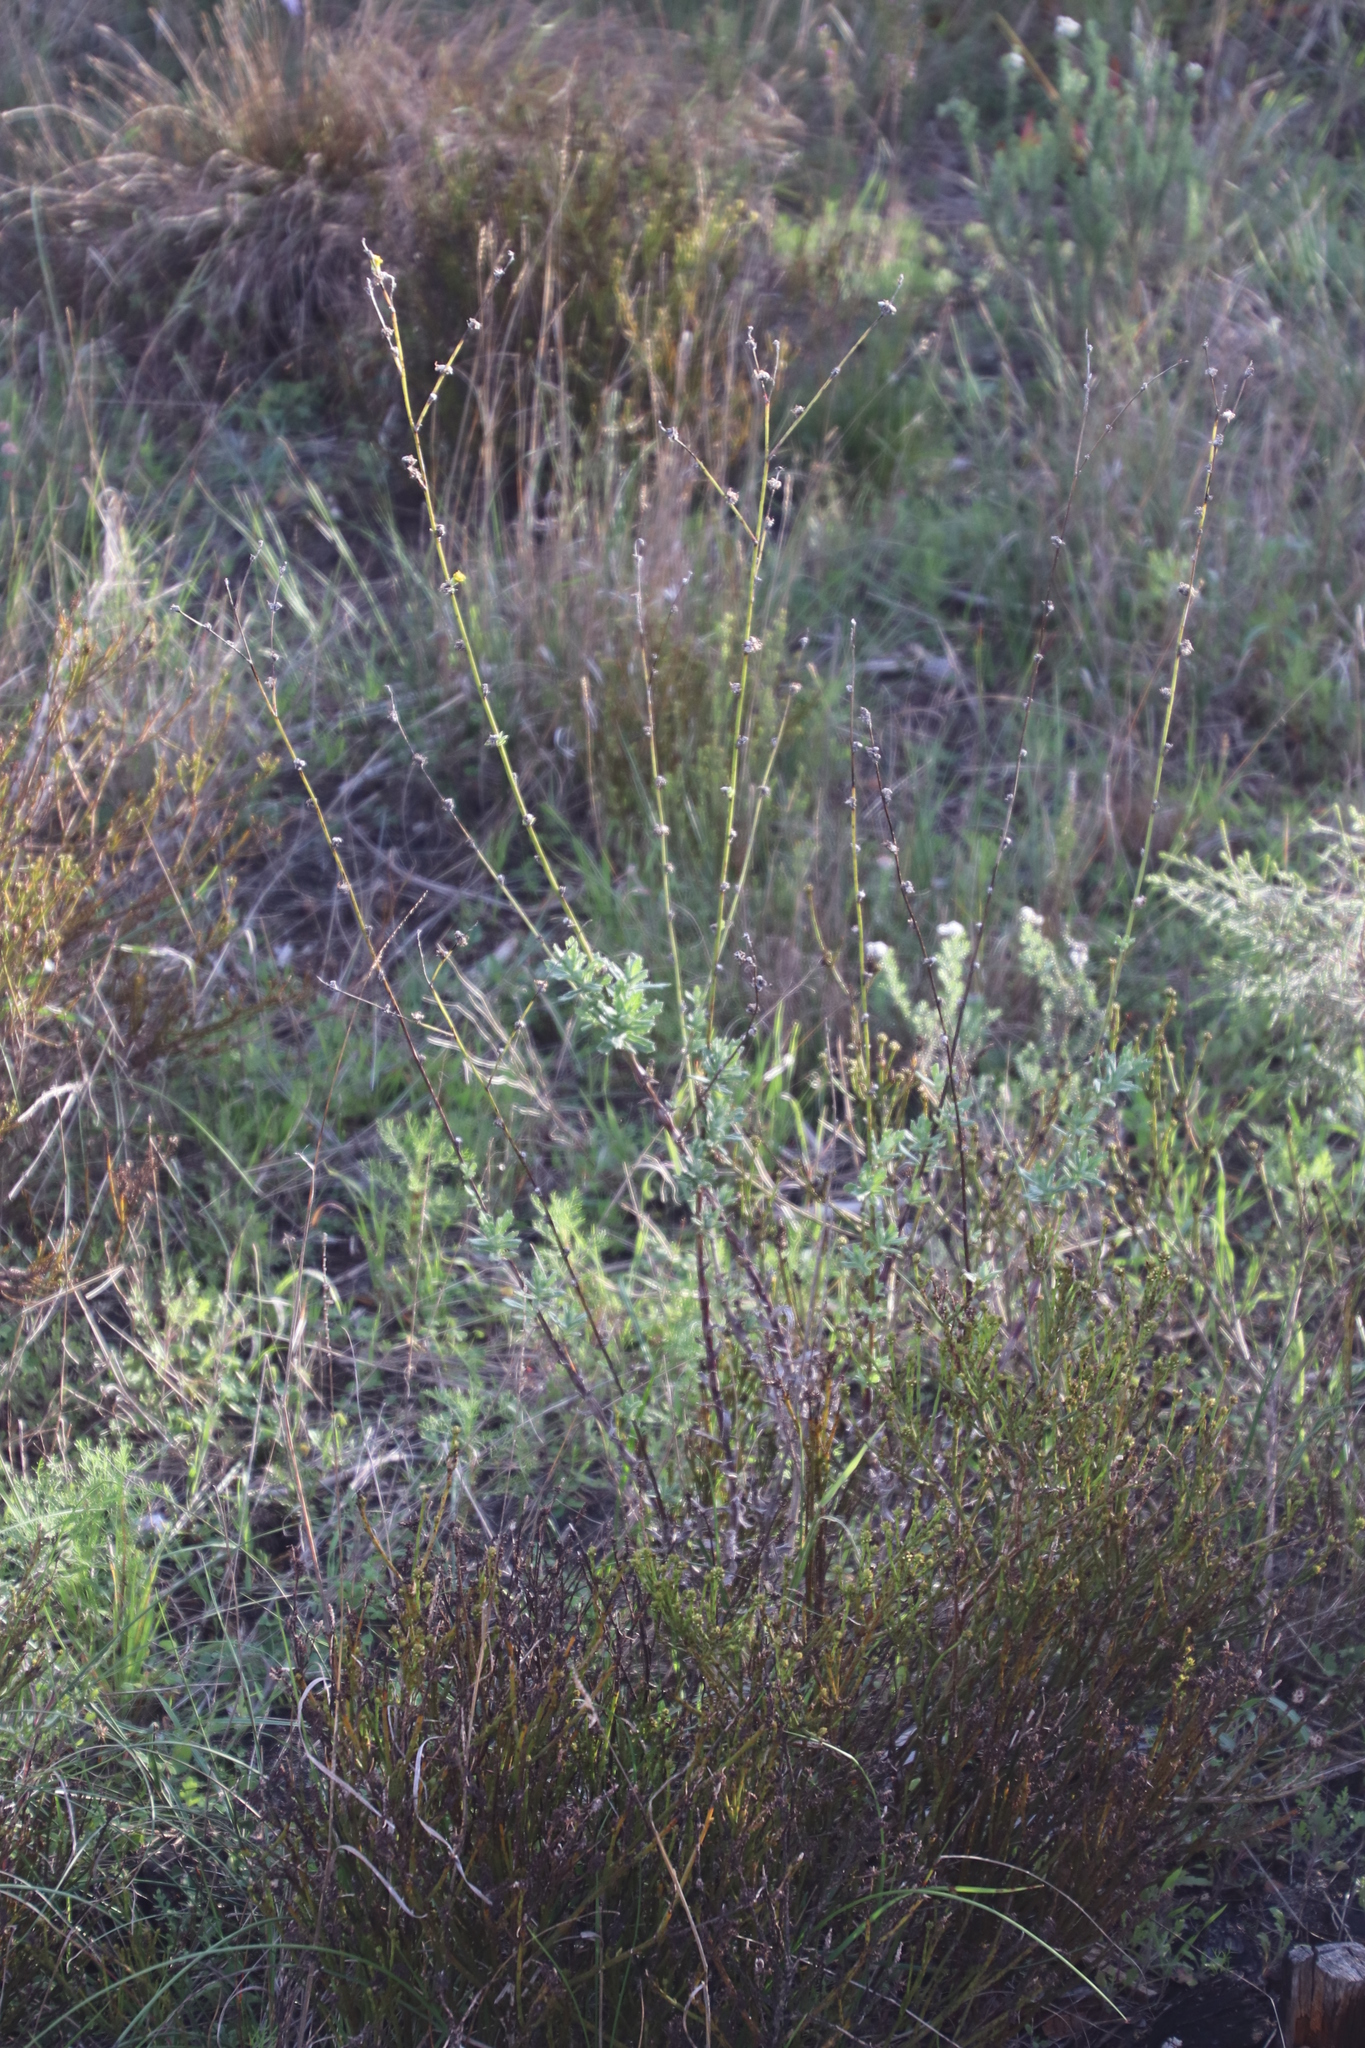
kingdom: Plantae
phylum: Tracheophyta
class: Magnoliopsida
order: Asterales
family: Asteraceae
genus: Senecio
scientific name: Senecio pubigerus
